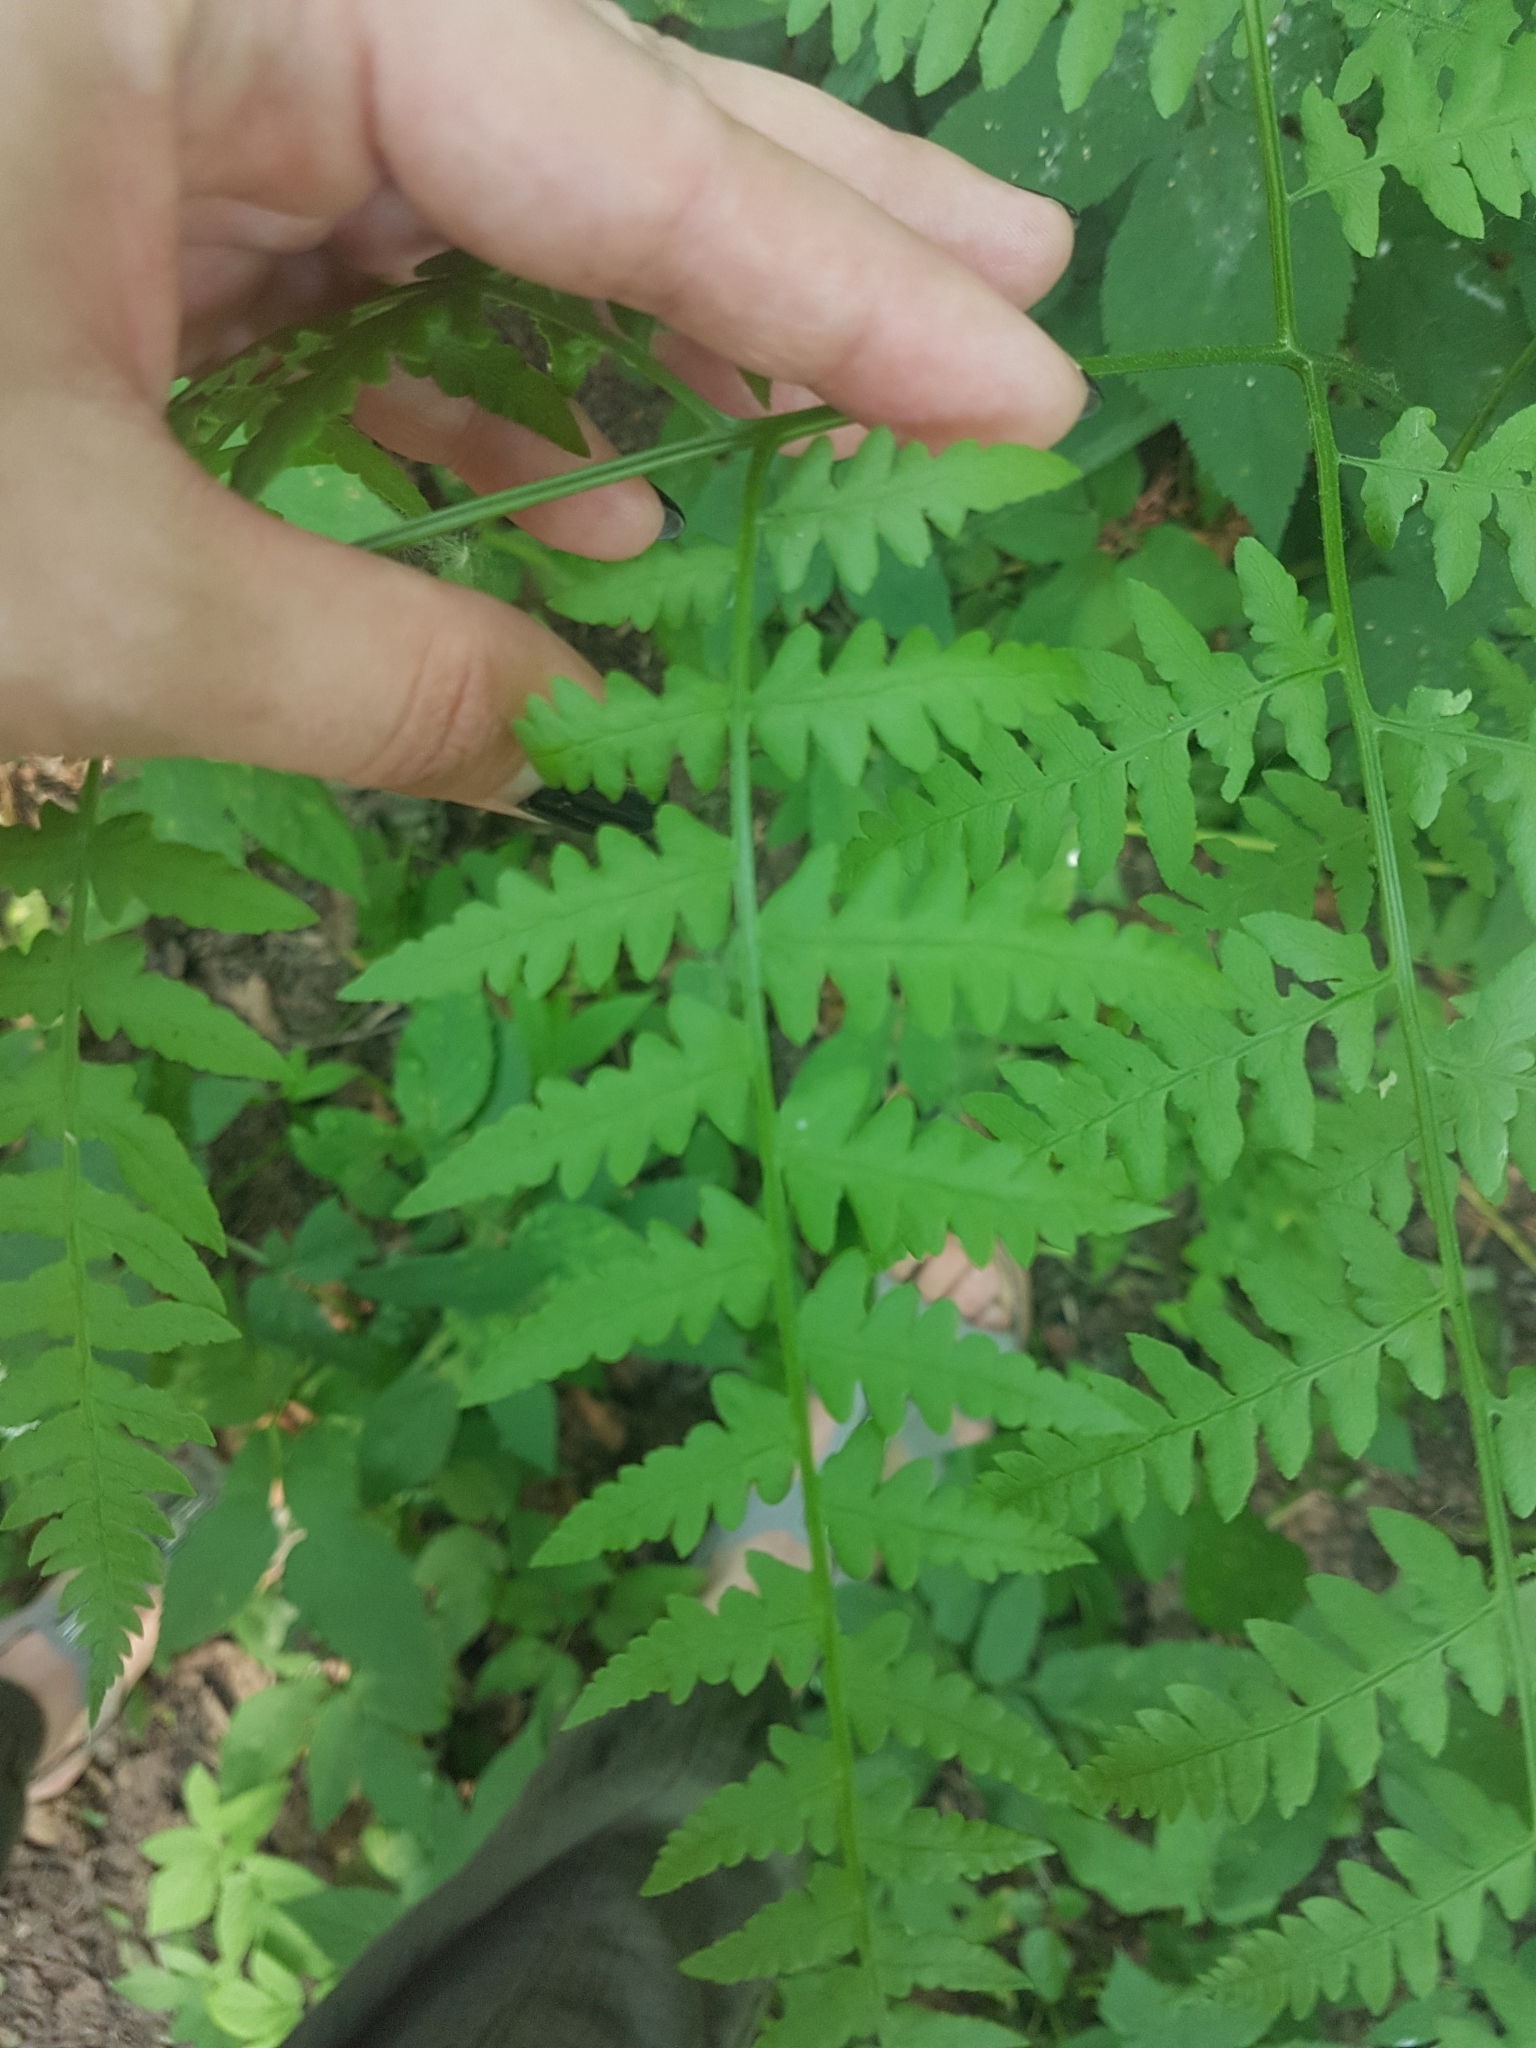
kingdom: Plantae
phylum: Tracheophyta
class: Polypodiopsida
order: Polypodiales
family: Dennstaedtiaceae
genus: Pteridium
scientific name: Pteridium aquilinum
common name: Bracken
